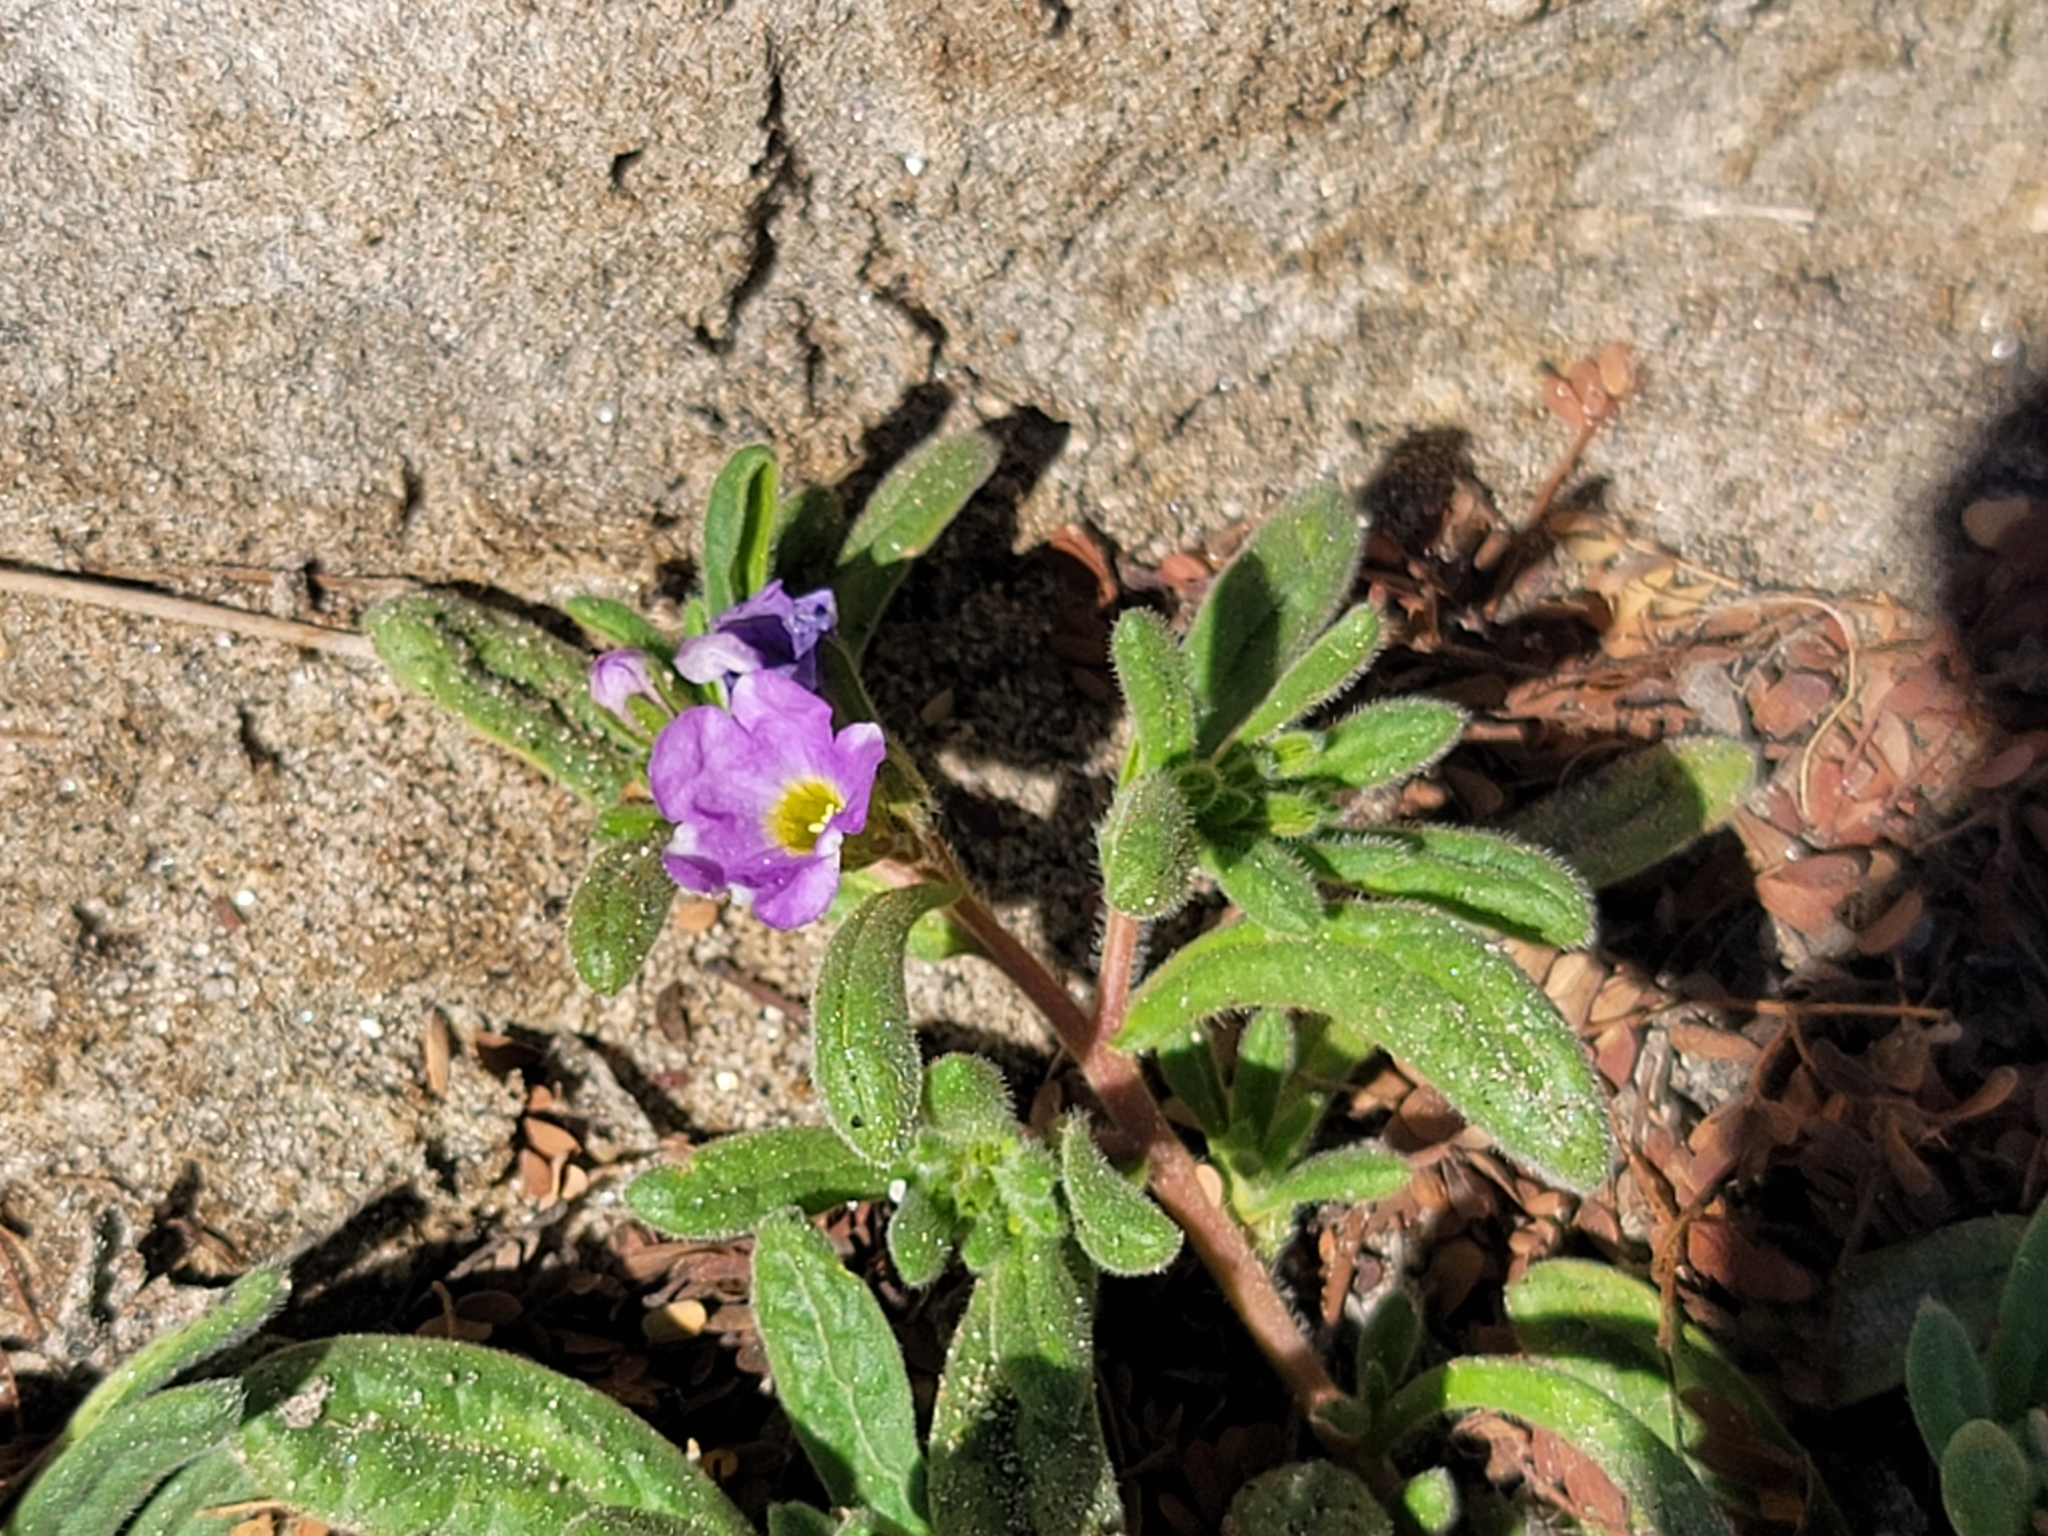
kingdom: Plantae
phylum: Tracheophyta
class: Magnoliopsida
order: Boraginales
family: Namaceae
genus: Nama
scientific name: Nama hispida
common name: Bristly nama
